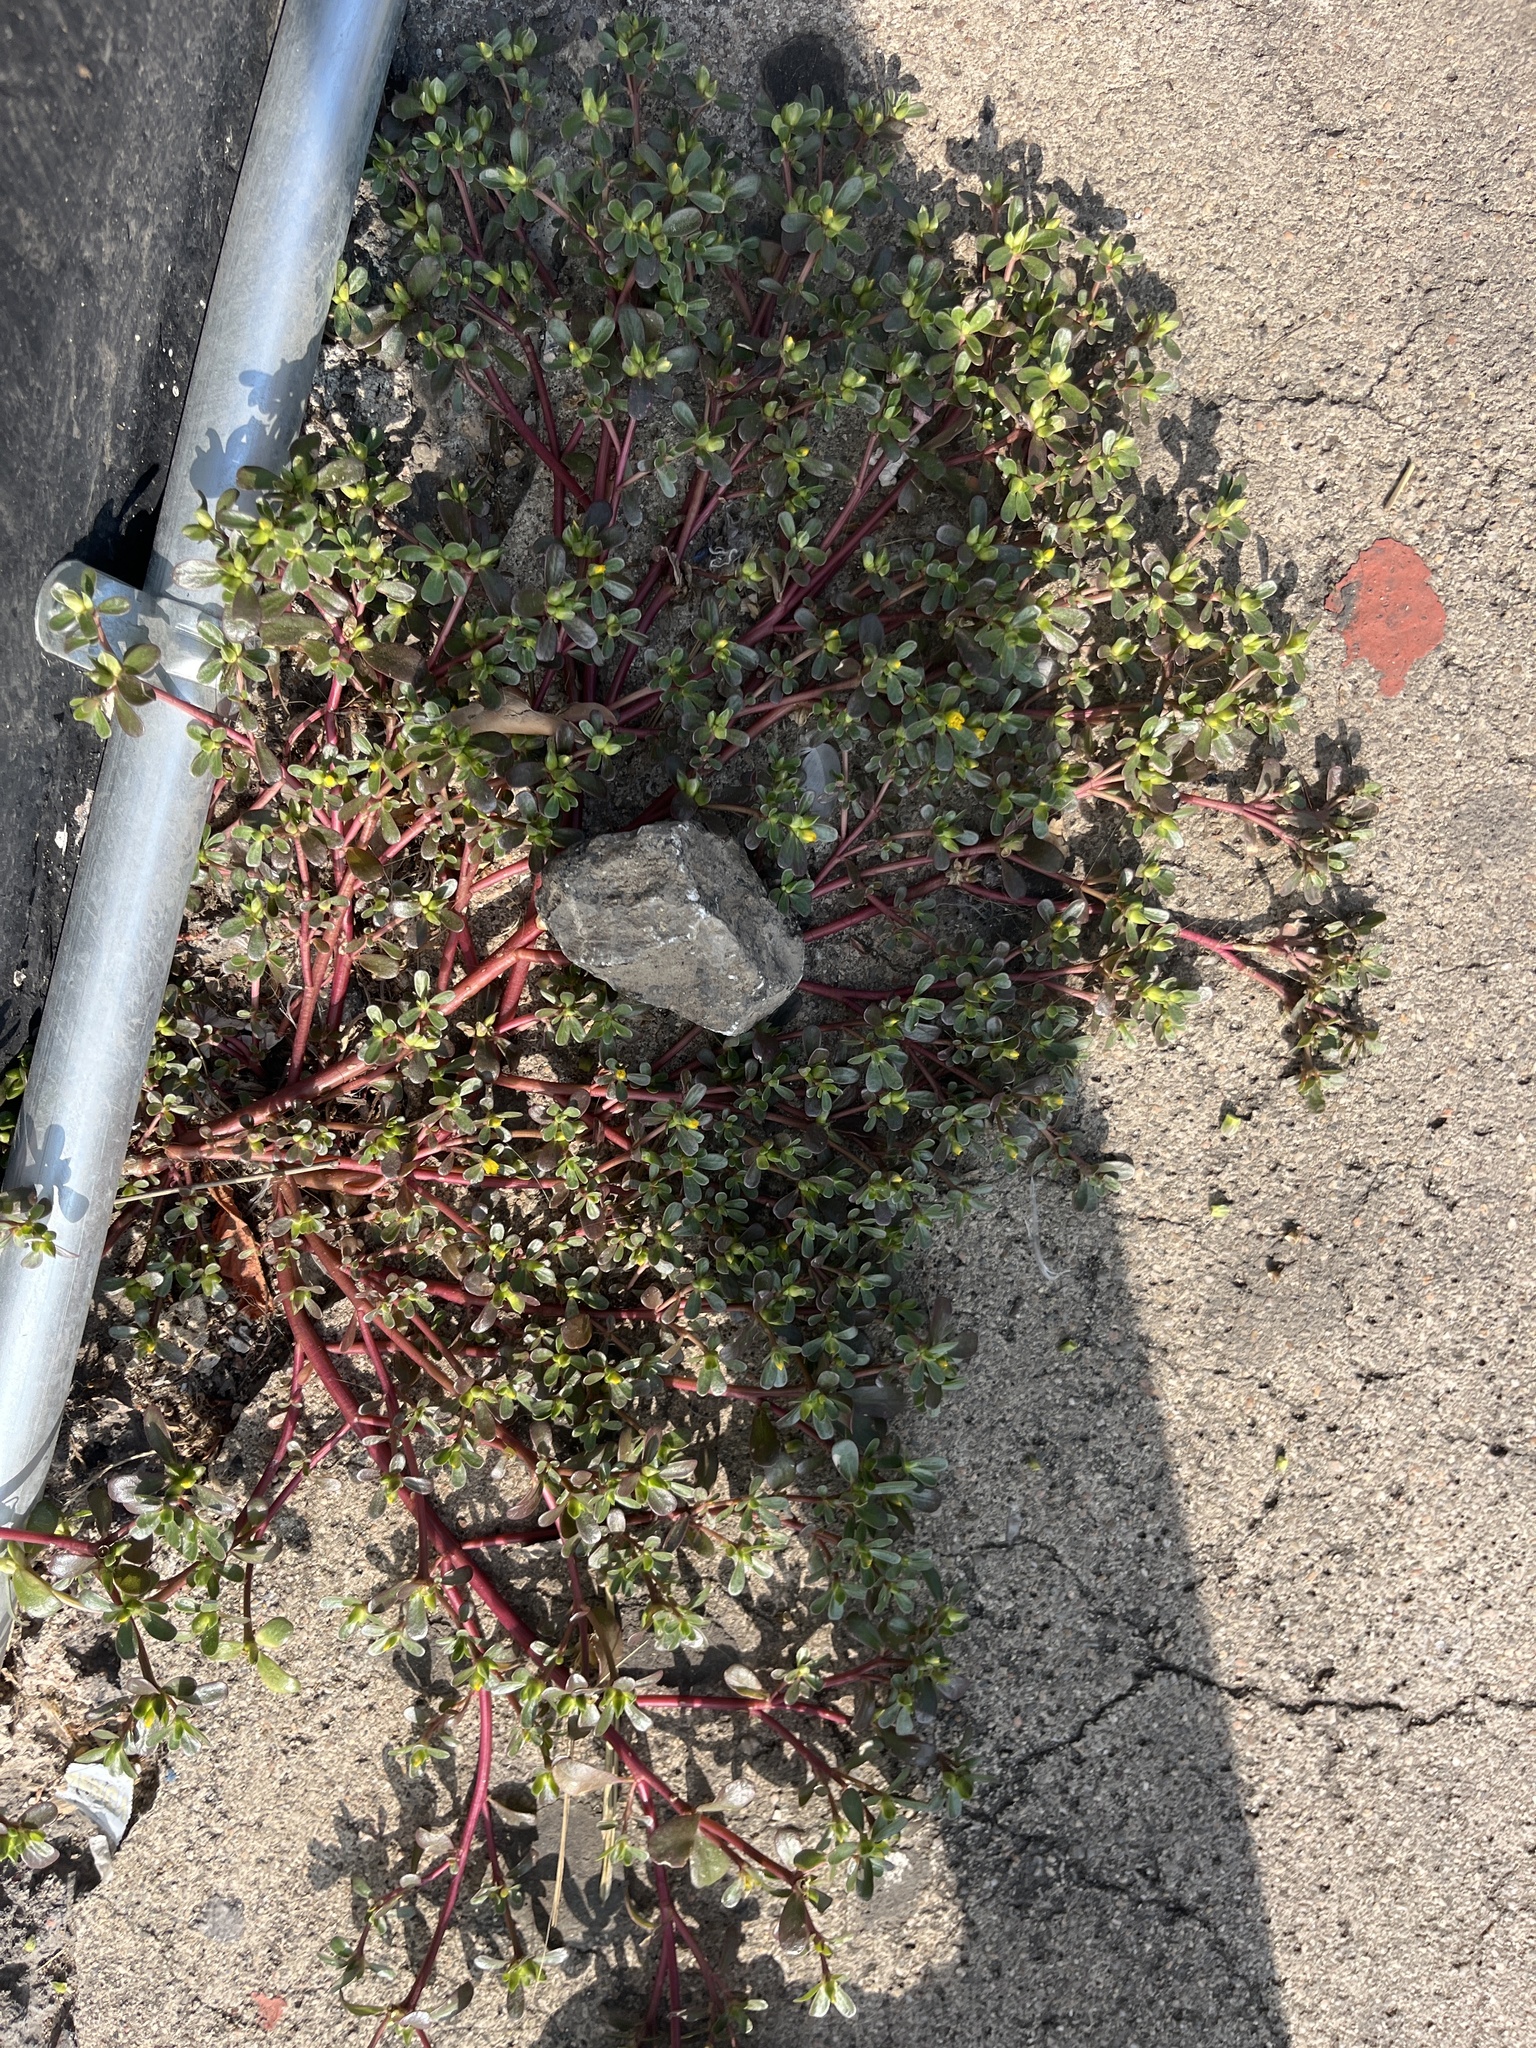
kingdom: Plantae
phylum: Tracheophyta
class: Magnoliopsida
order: Caryophyllales
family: Portulacaceae
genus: Portulaca
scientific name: Portulaca oleracea
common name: Common purslane
